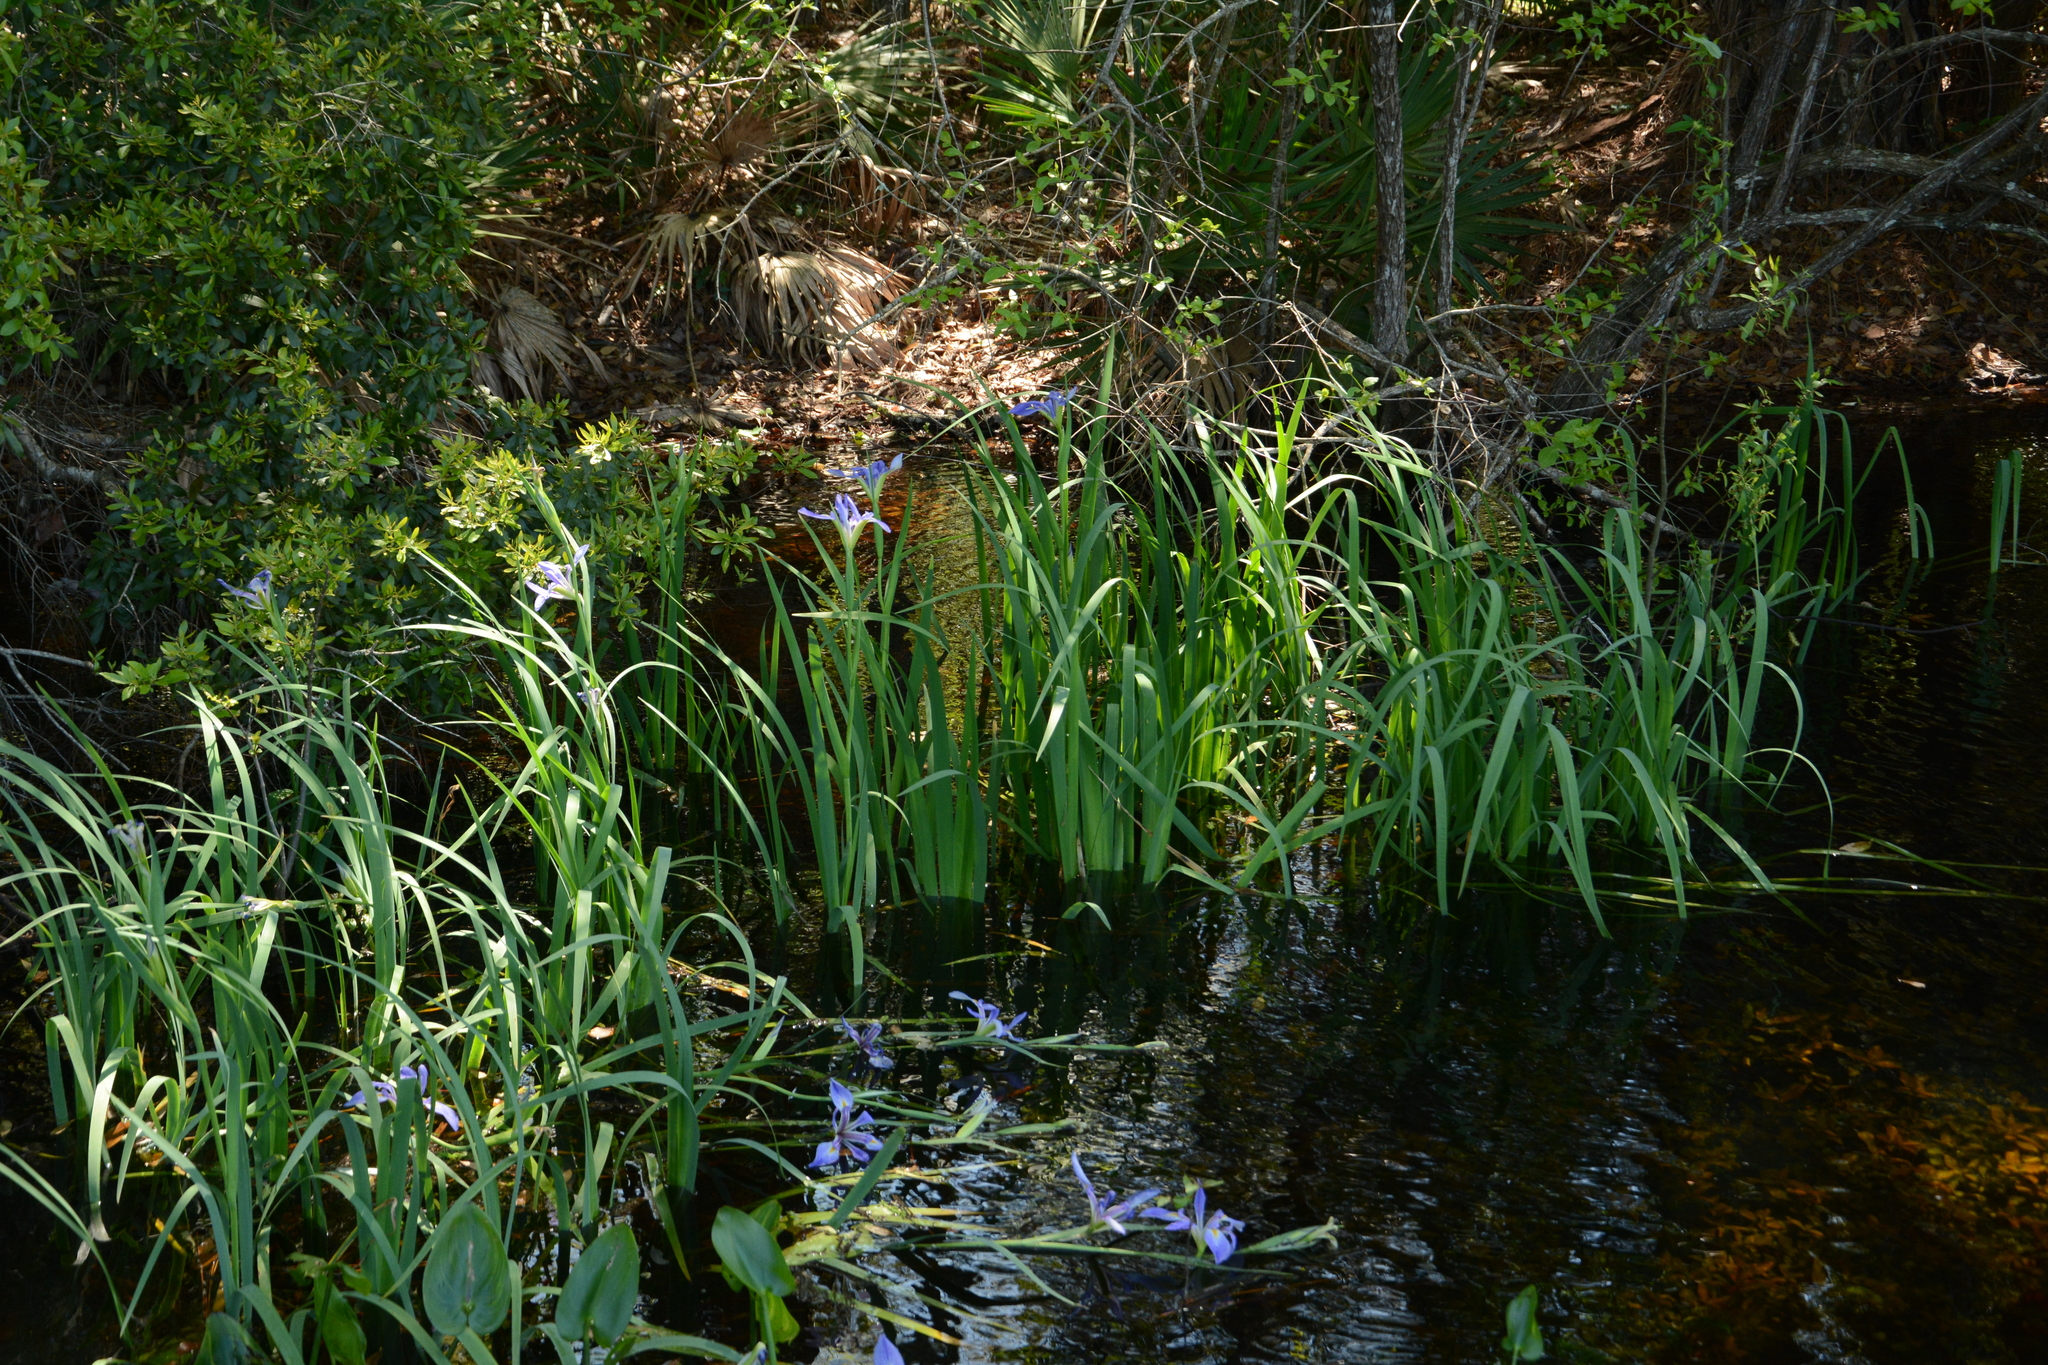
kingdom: Plantae
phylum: Tracheophyta
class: Liliopsida
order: Asparagales
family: Iridaceae
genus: Iris
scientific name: Iris savannarum
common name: Prairie iris
